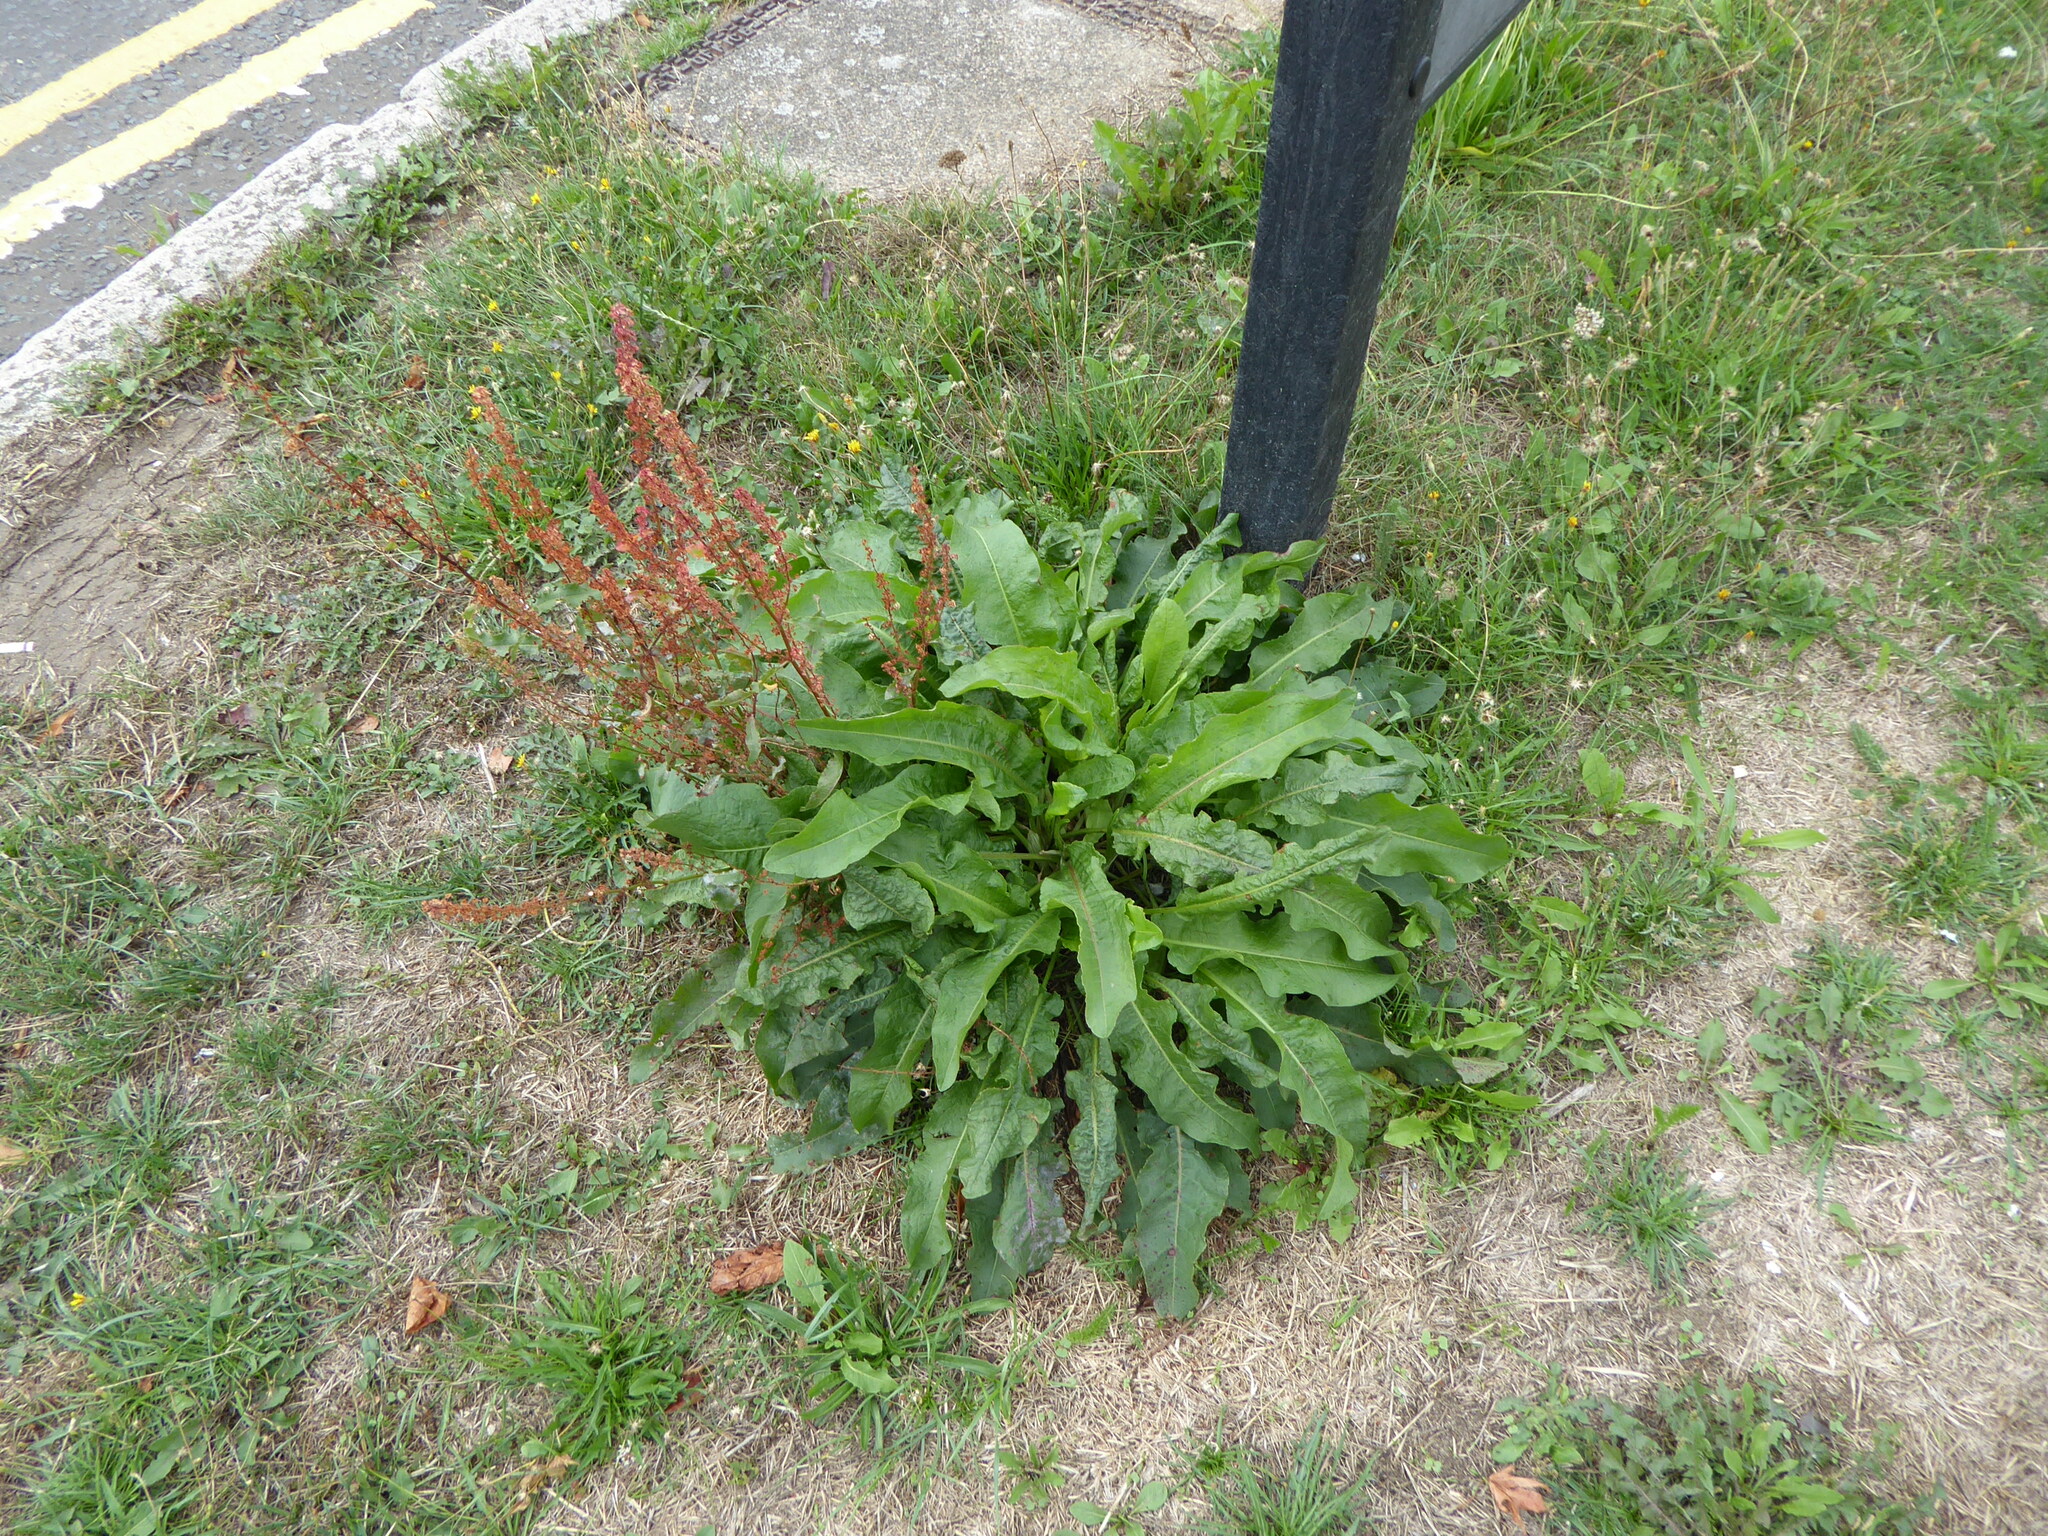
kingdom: Plantae
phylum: Tracheophyta
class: Magnoliopsida
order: Caryophyllales
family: Polygonaceae
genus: Rumex
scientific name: Rumex acutus
